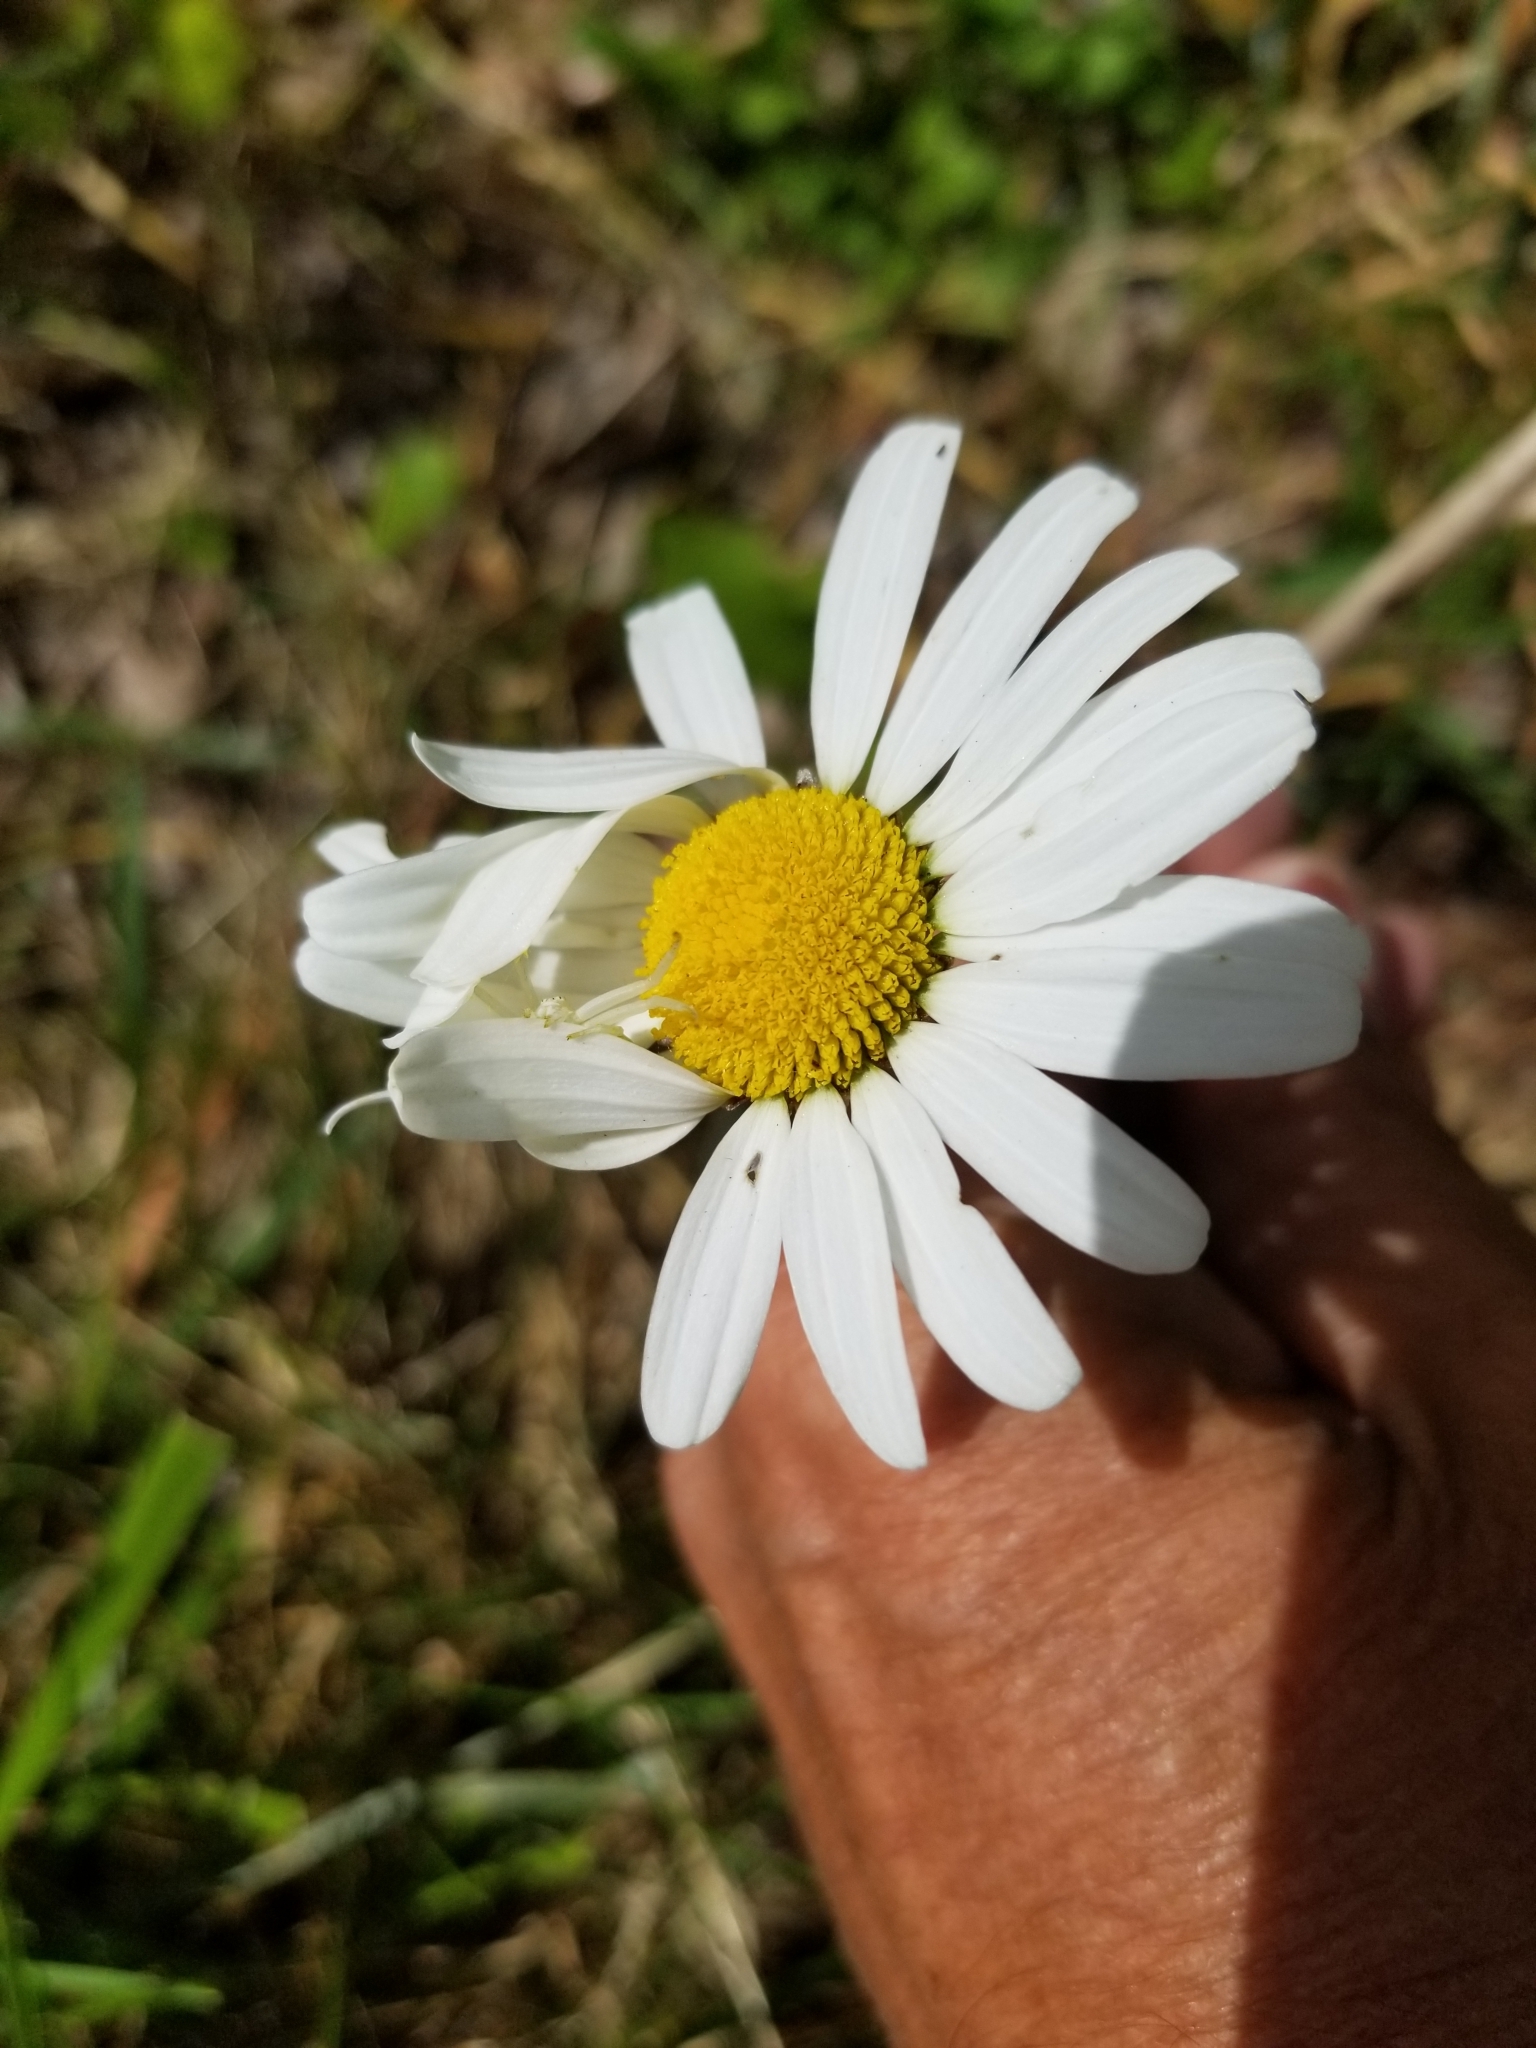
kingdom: Plantae
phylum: Tracheophyta
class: Magnoliopsida
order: Asterales
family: Asteraceae
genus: Leucanthemum
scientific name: Leucanthemum vulgare
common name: Oxeye daisy
